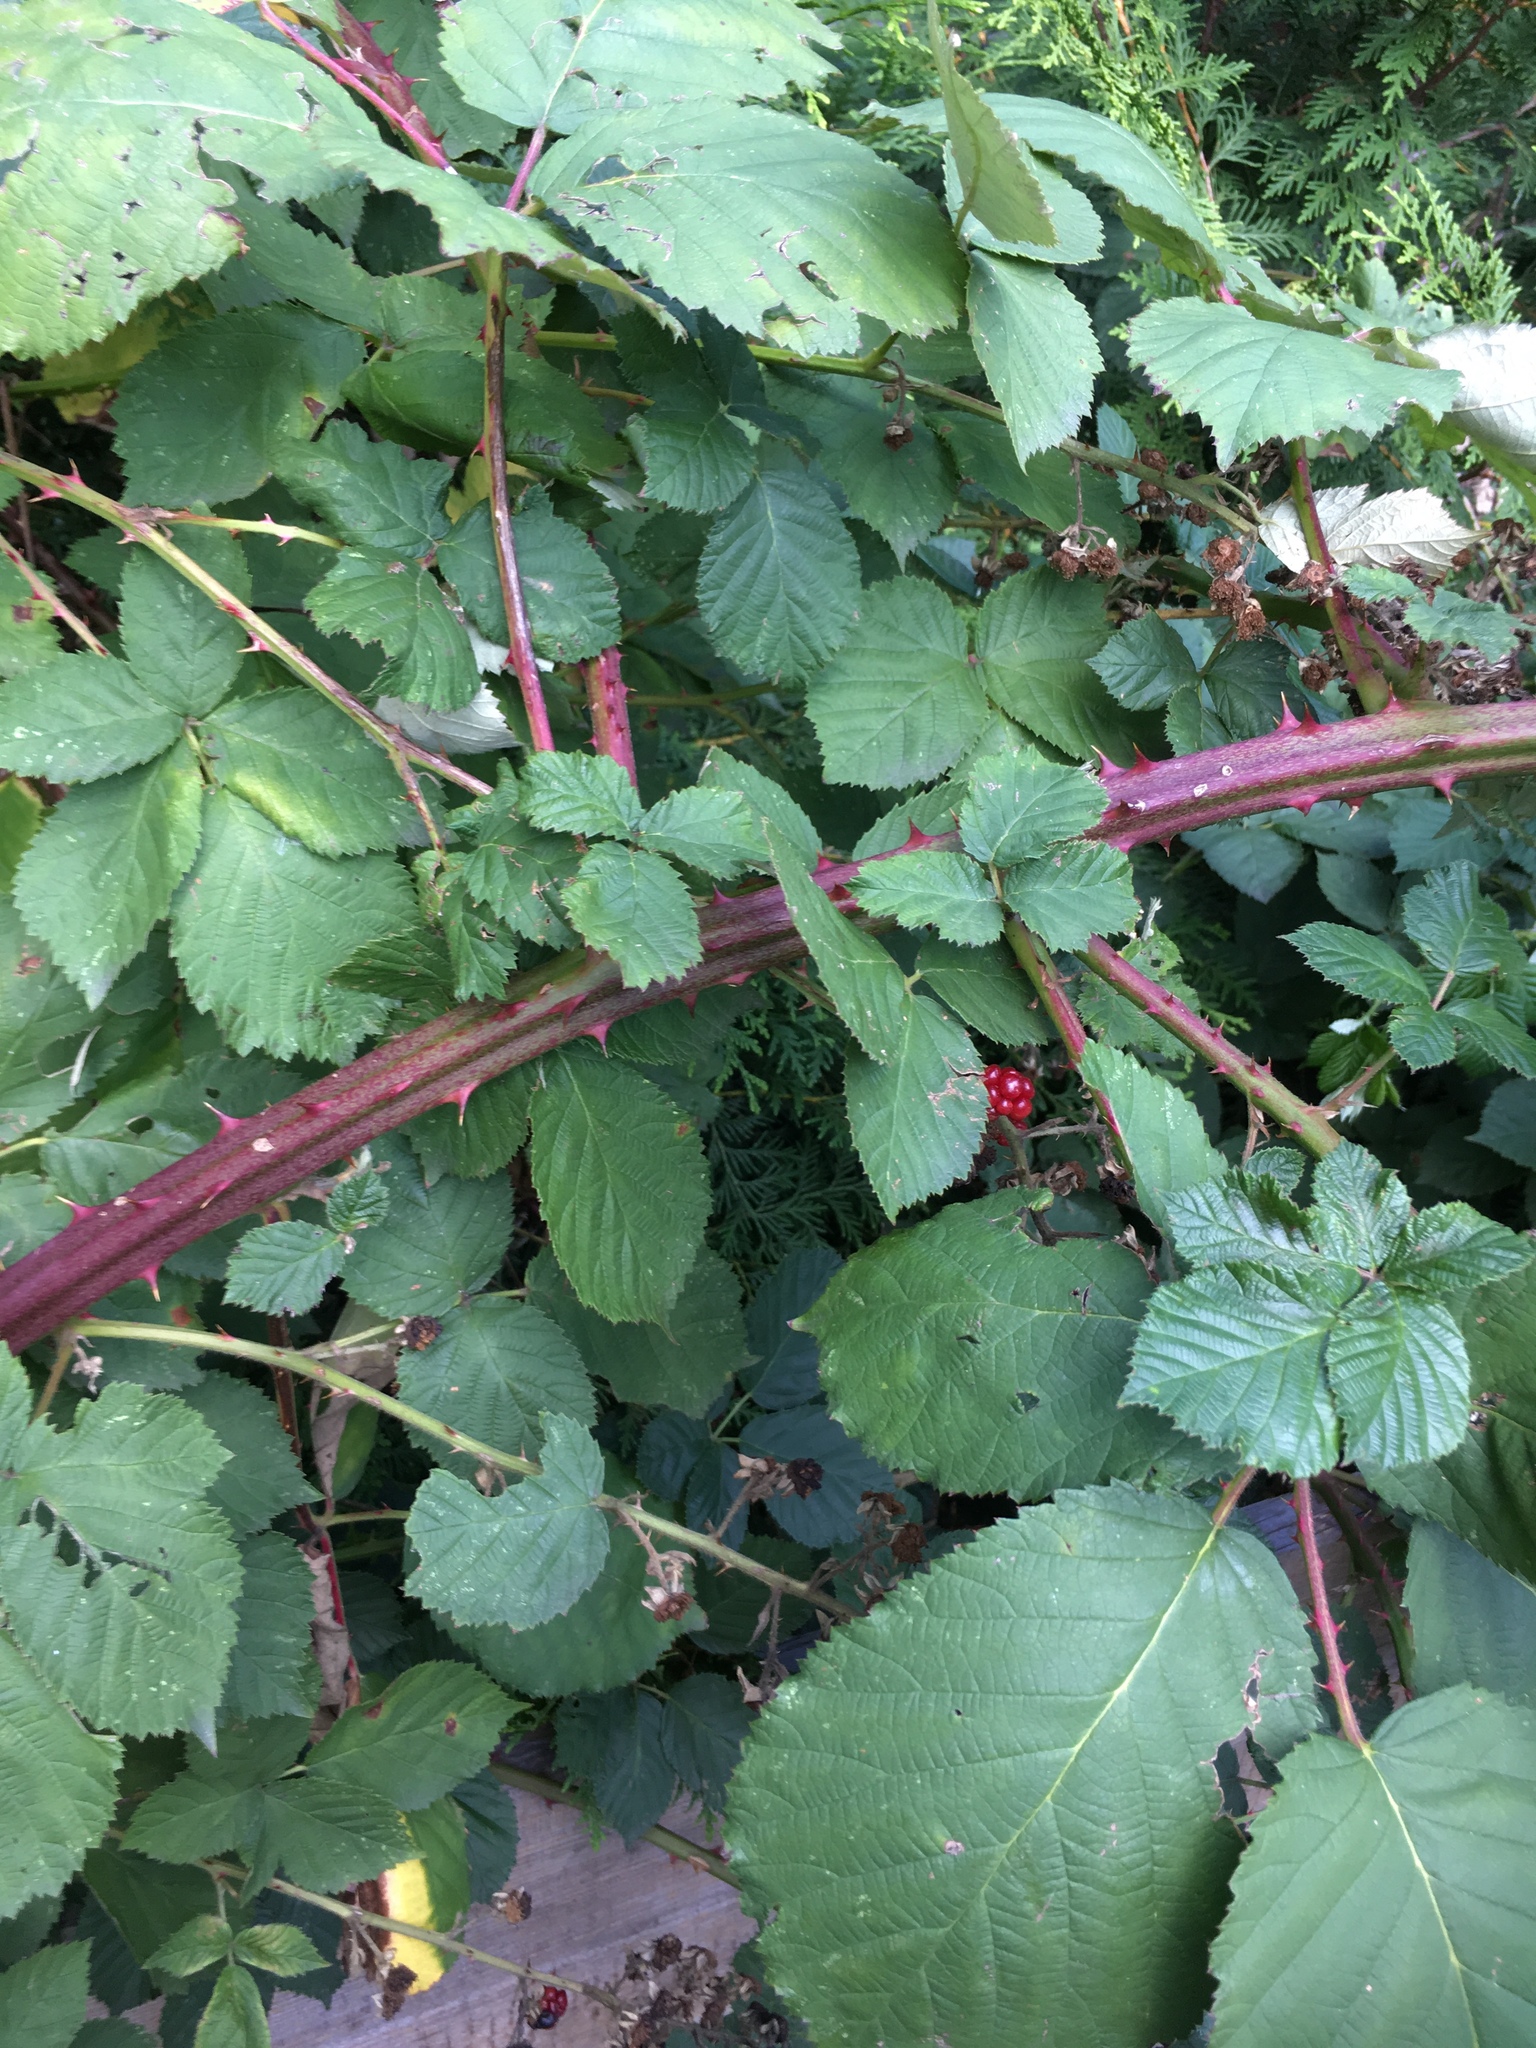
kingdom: Plantae
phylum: Tracheophyta
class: Magnoliopsida
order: Rosales
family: Rosaceae
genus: Rubus
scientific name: Rubus armeniacus
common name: Himalayan blackberry
